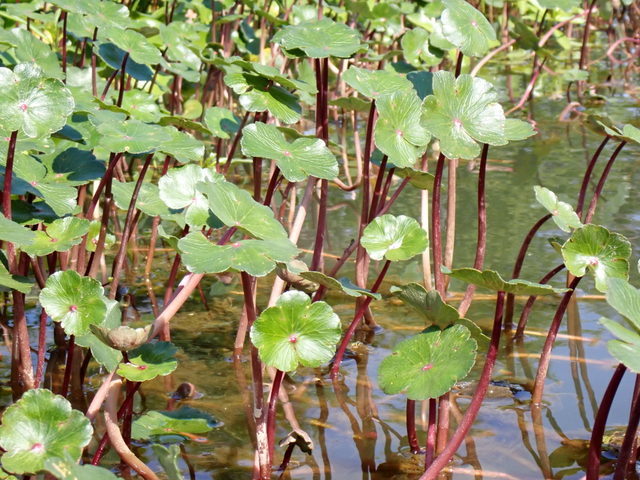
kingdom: Plantae
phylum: Tracheophyta
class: Magnoliopsida
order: Apiales
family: Araliaceae
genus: Hydrocotyle
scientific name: Hydrocotyle ranunculoides
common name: Floating pennywort
